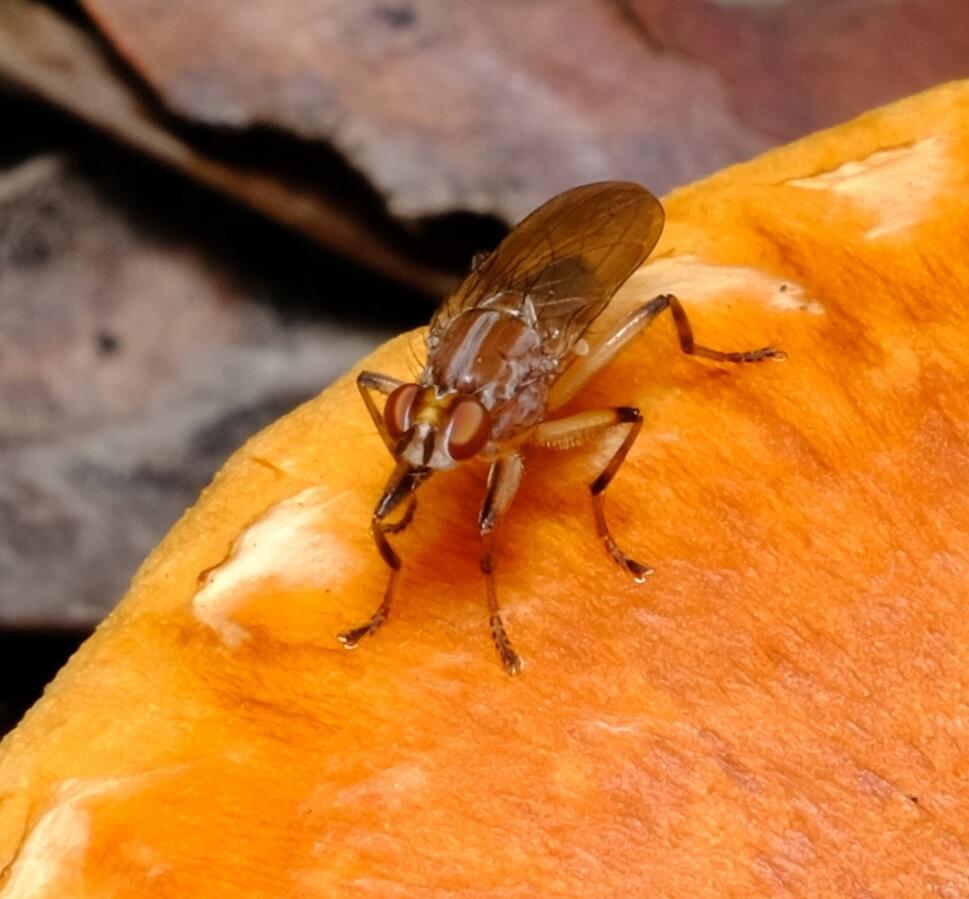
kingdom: Animalia
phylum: Arthropoda
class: Insecta
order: Diptera
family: Heleomyzidae
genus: Tapeigaster
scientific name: Tapeigaster paramonovi
